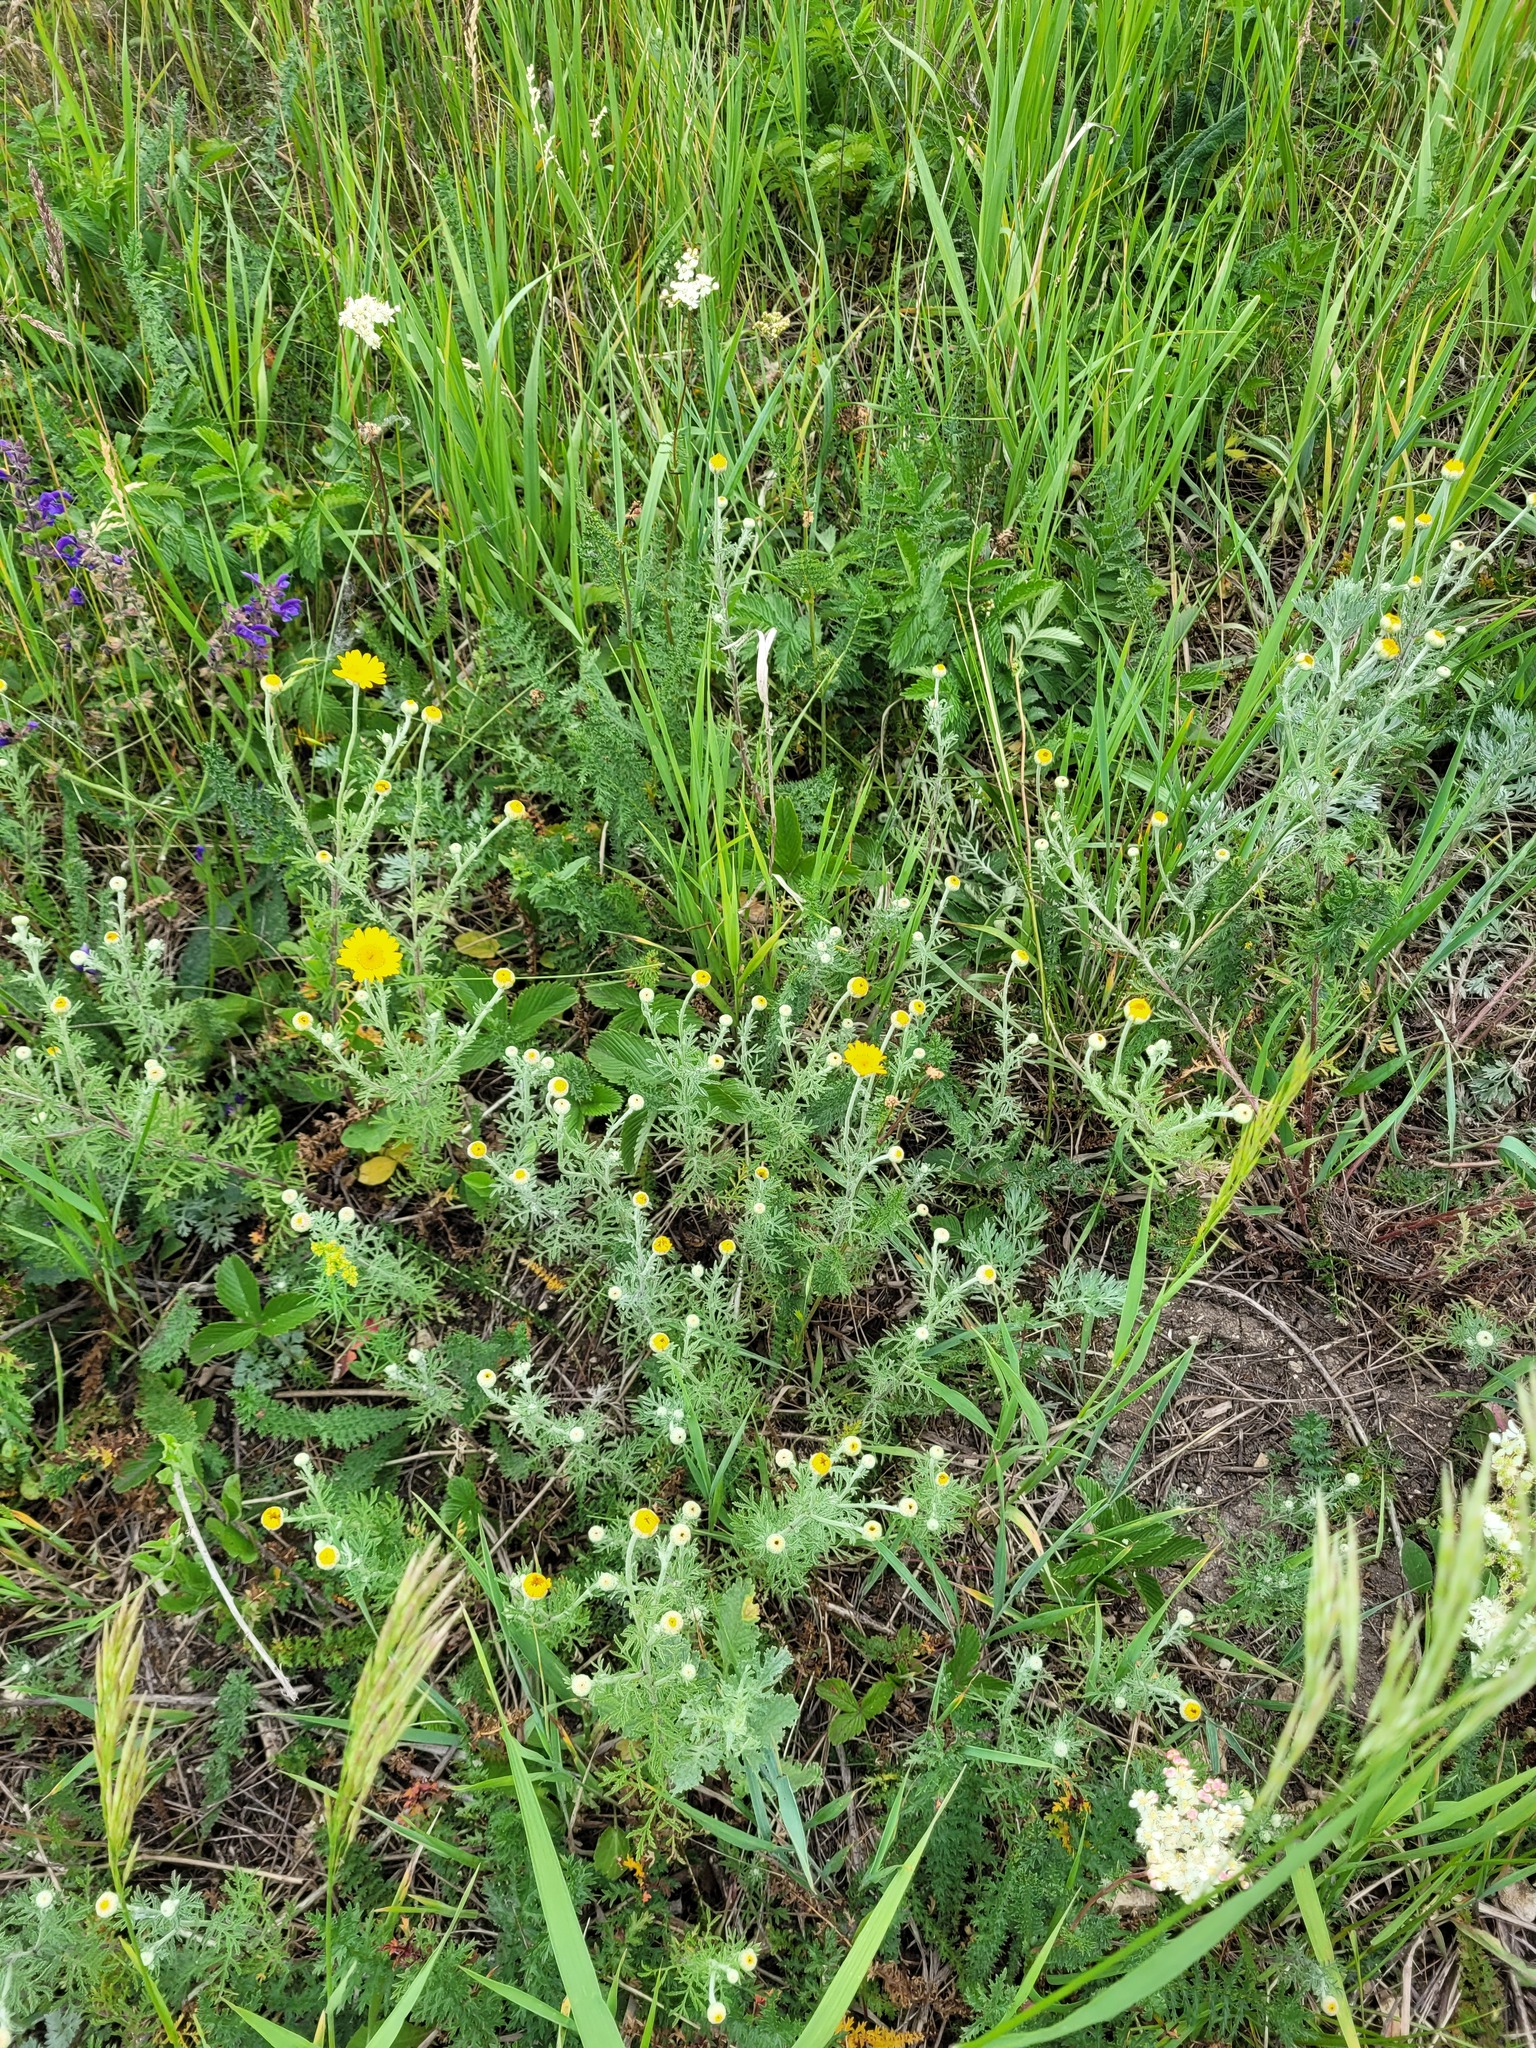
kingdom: Plantae
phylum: Tracheophyta
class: Magnoliopsida
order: Asterales
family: Asteraceae
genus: Cota
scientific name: Cota tinctoria
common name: Golden chamomile
